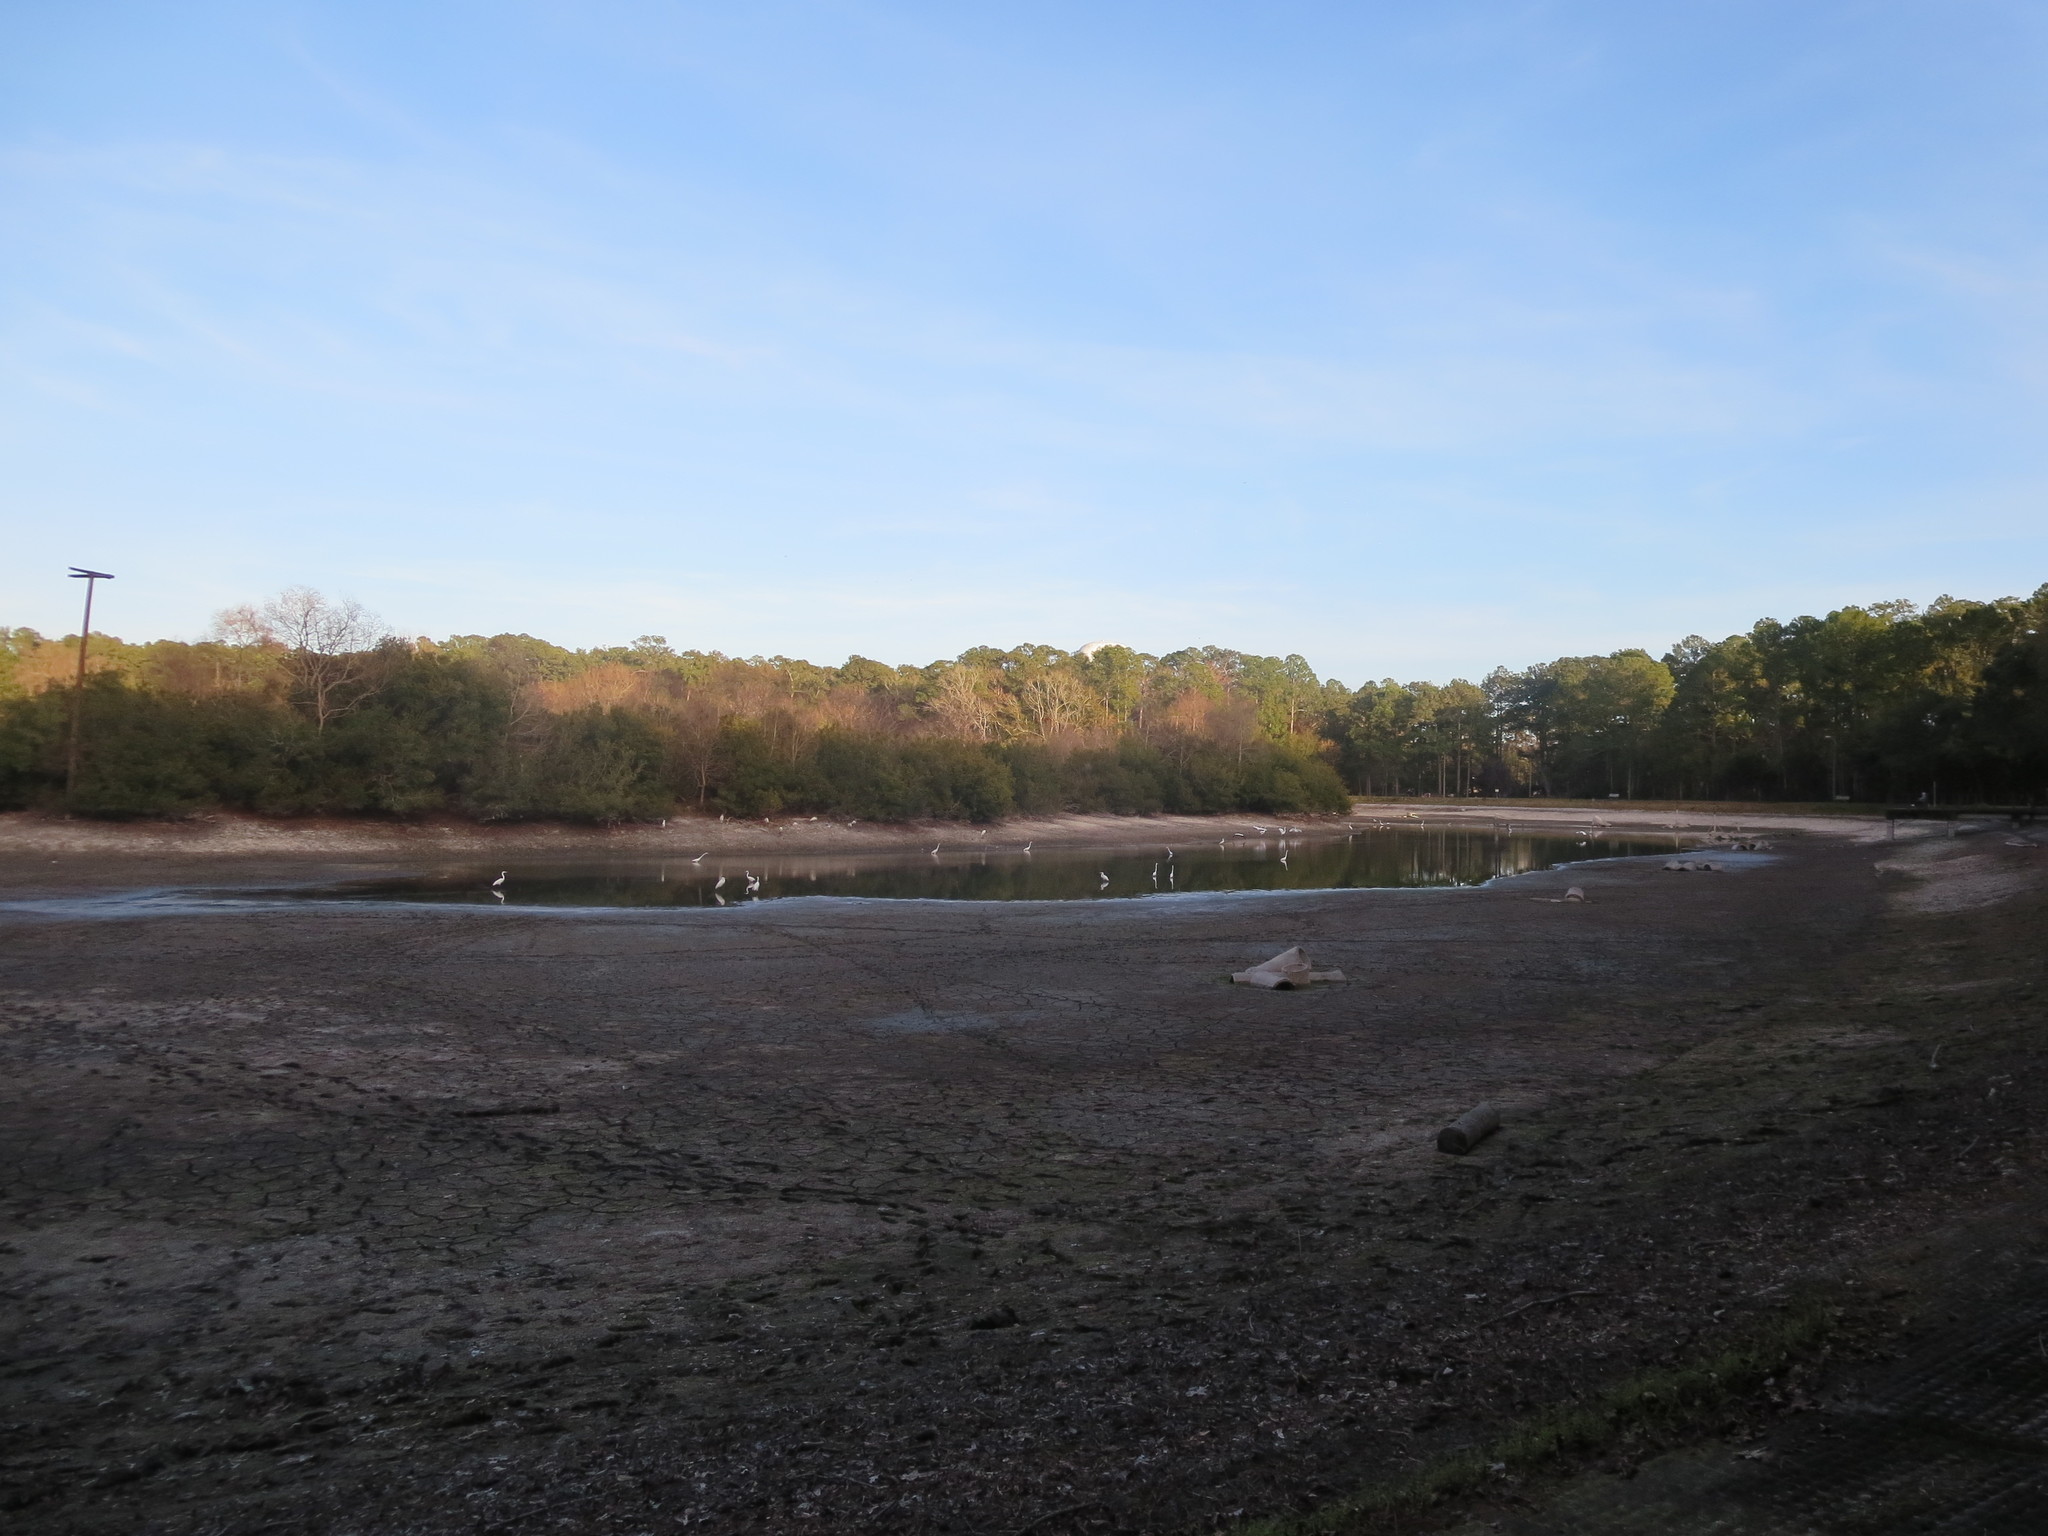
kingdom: Animalia
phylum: Chordata
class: Aves
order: Pelecaniformes
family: Ardeidae
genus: Ardea
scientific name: Ardea alba
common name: Great egret
